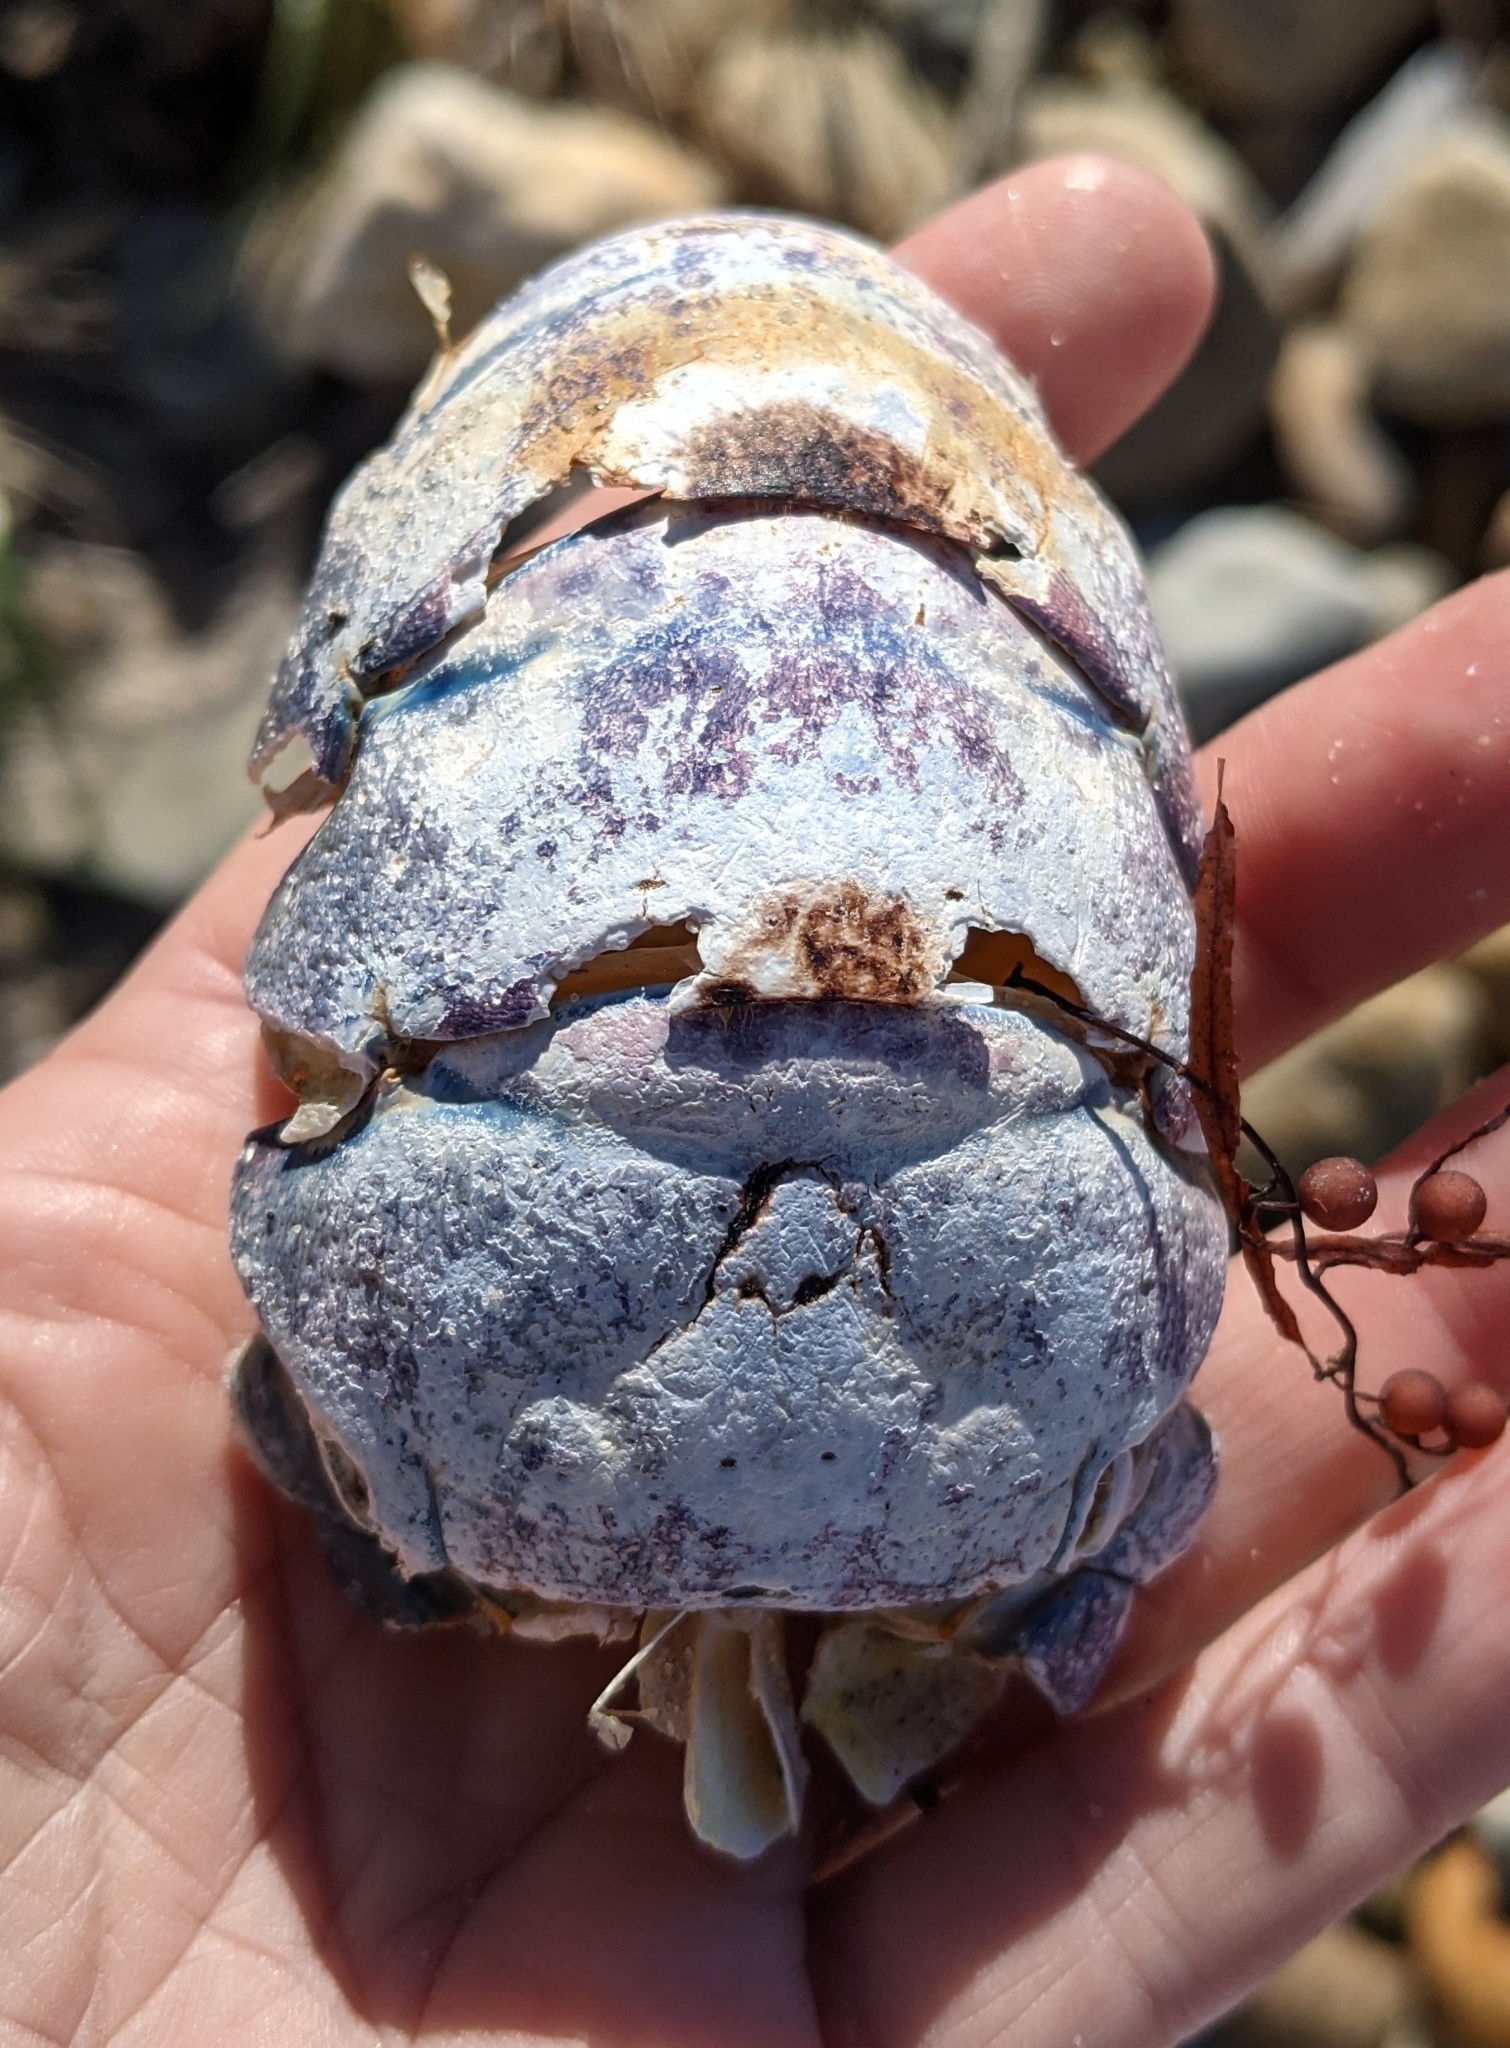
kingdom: Animalia
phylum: Arthropoda
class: Malacostraca
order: Decapoda
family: Nephropidae
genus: Homarus
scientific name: Homarus americanus
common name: American lobster
